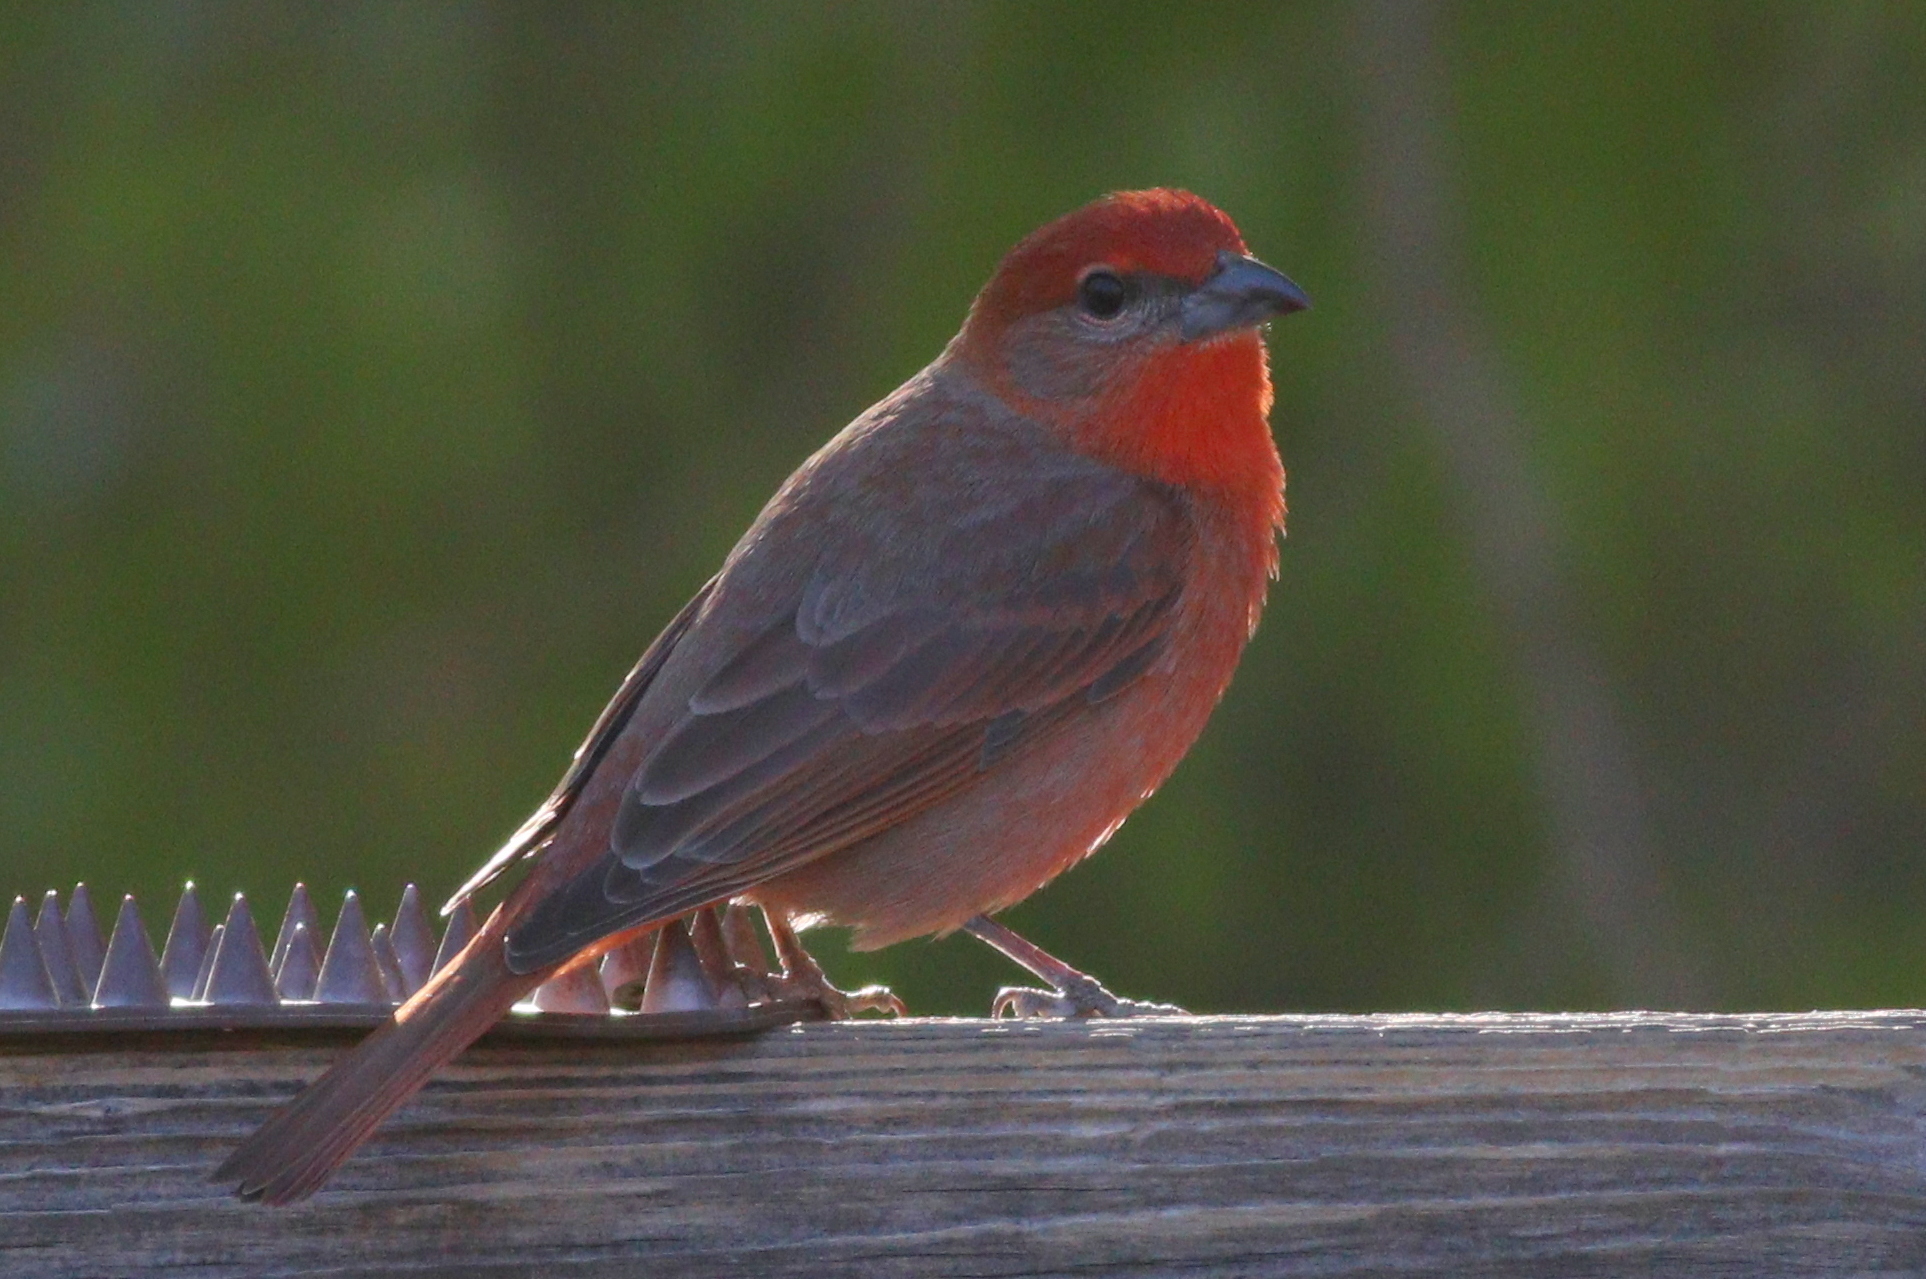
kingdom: Animalia
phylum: Chordata
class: Aves
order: Passeriformes
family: Cardinalidae
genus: Piranga
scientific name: Piranga flava
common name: Red tanager
